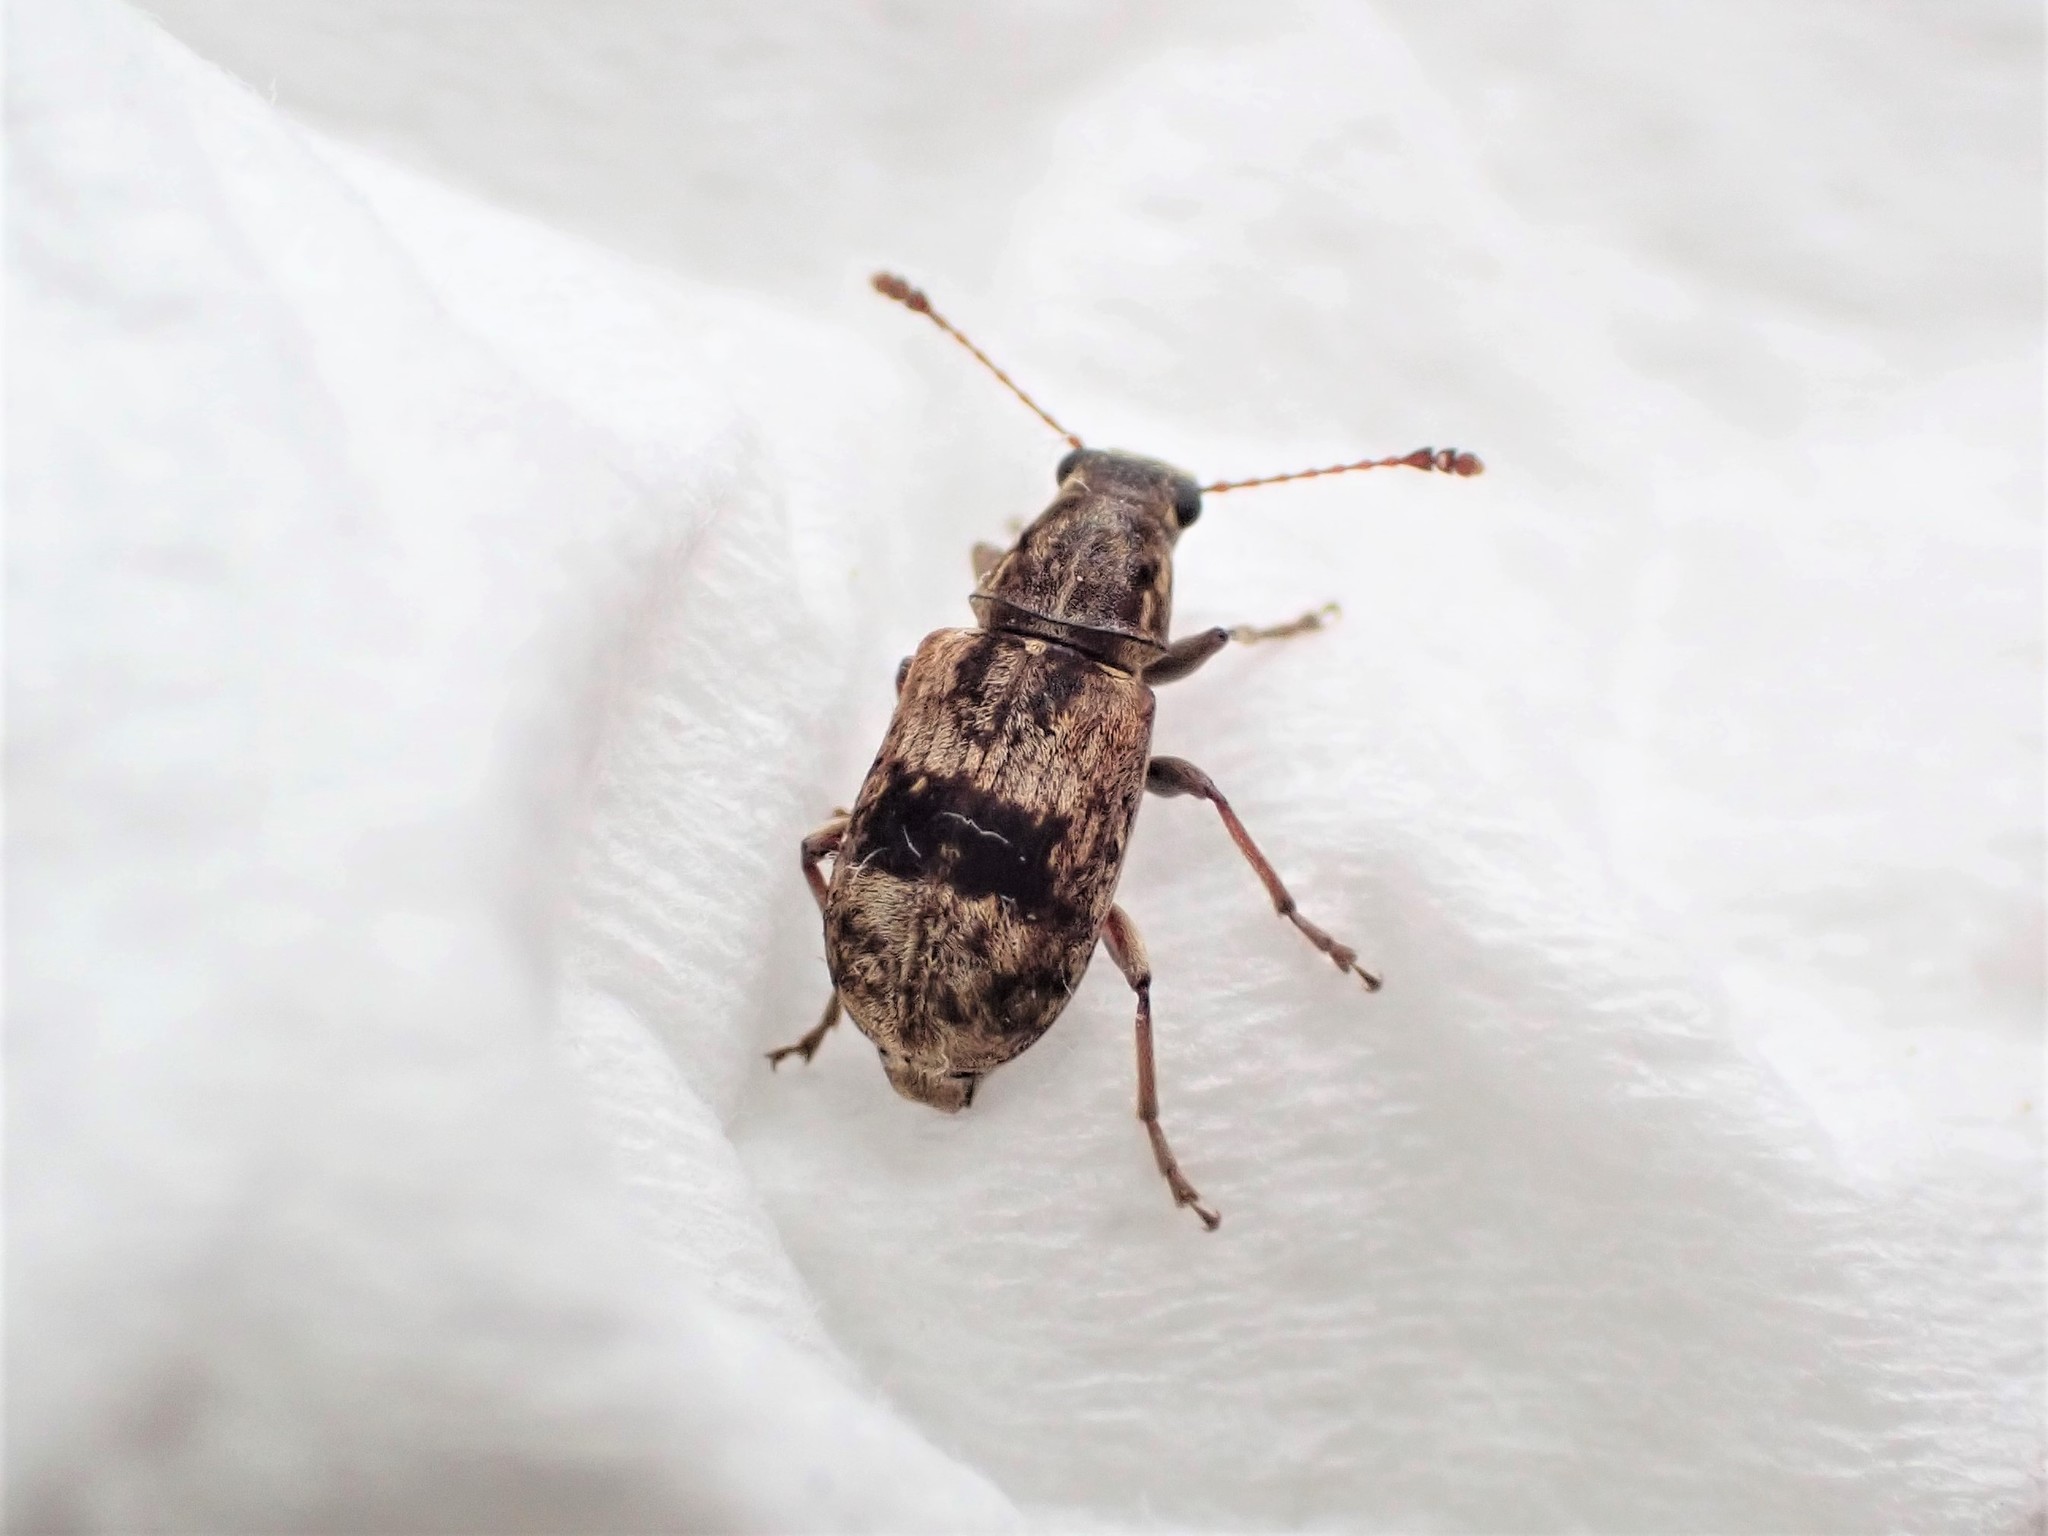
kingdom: Animalia
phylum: Arthropoda
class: Insecta
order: Coleoptera
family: Anthribidae
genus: Cacephatus
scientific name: Cacephatus huttoni
